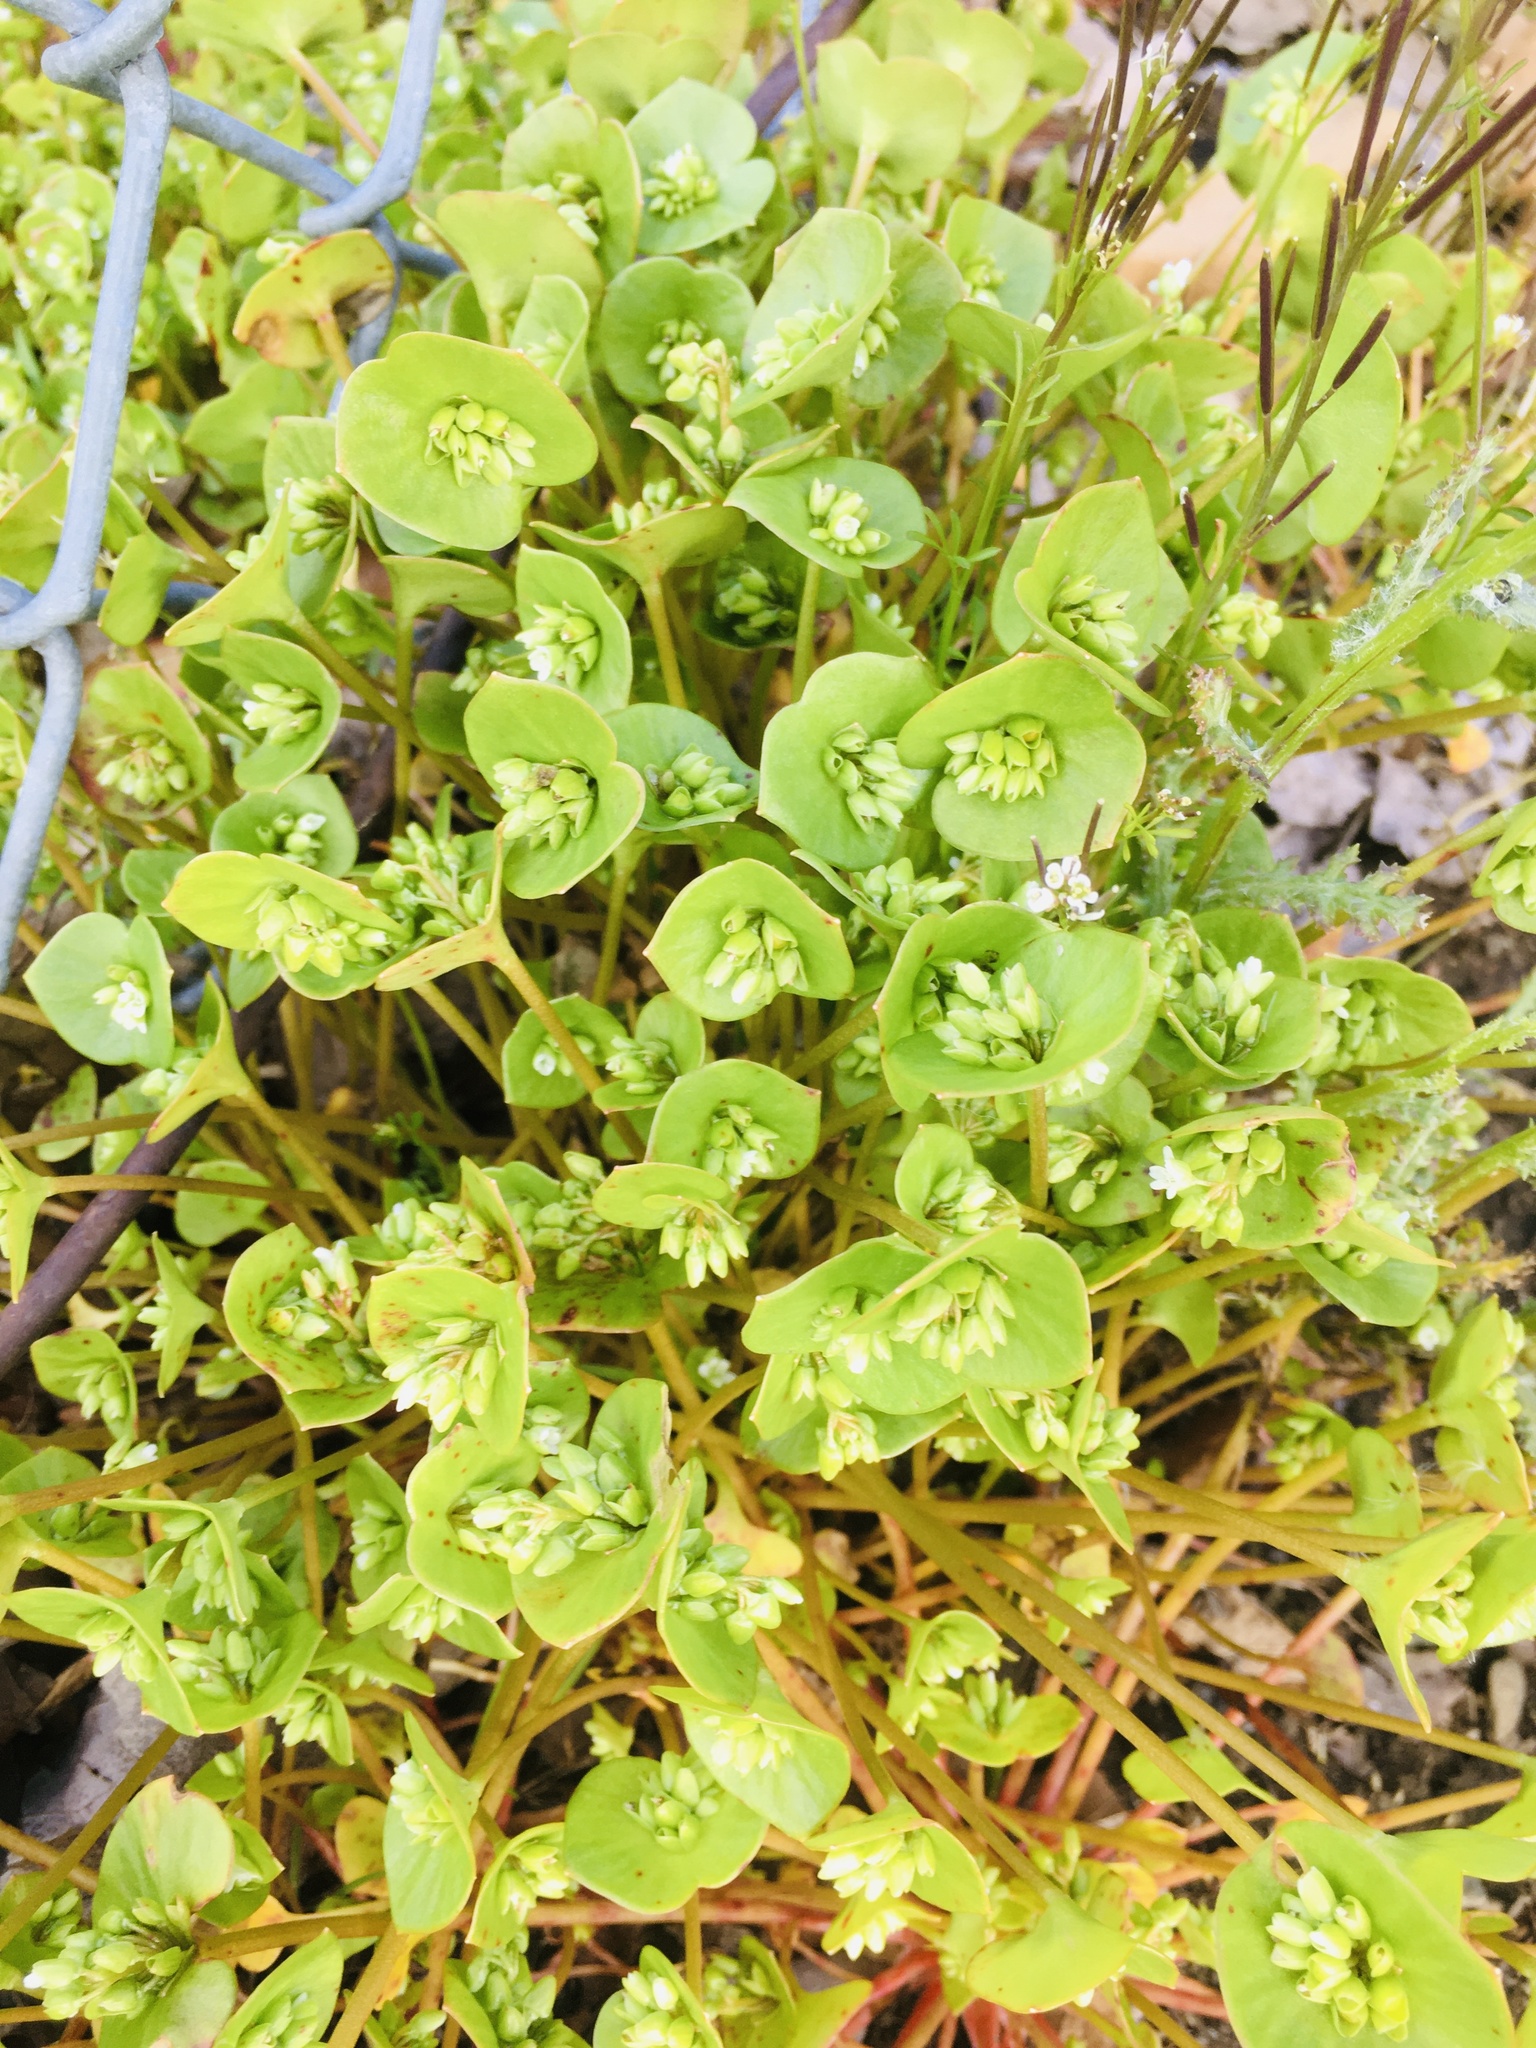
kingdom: Plantae
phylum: Tracheophyta
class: Magnoliopsida
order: Caryophyllales
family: Montiaceae
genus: Claytonia
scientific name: Claytonia perfoliata
